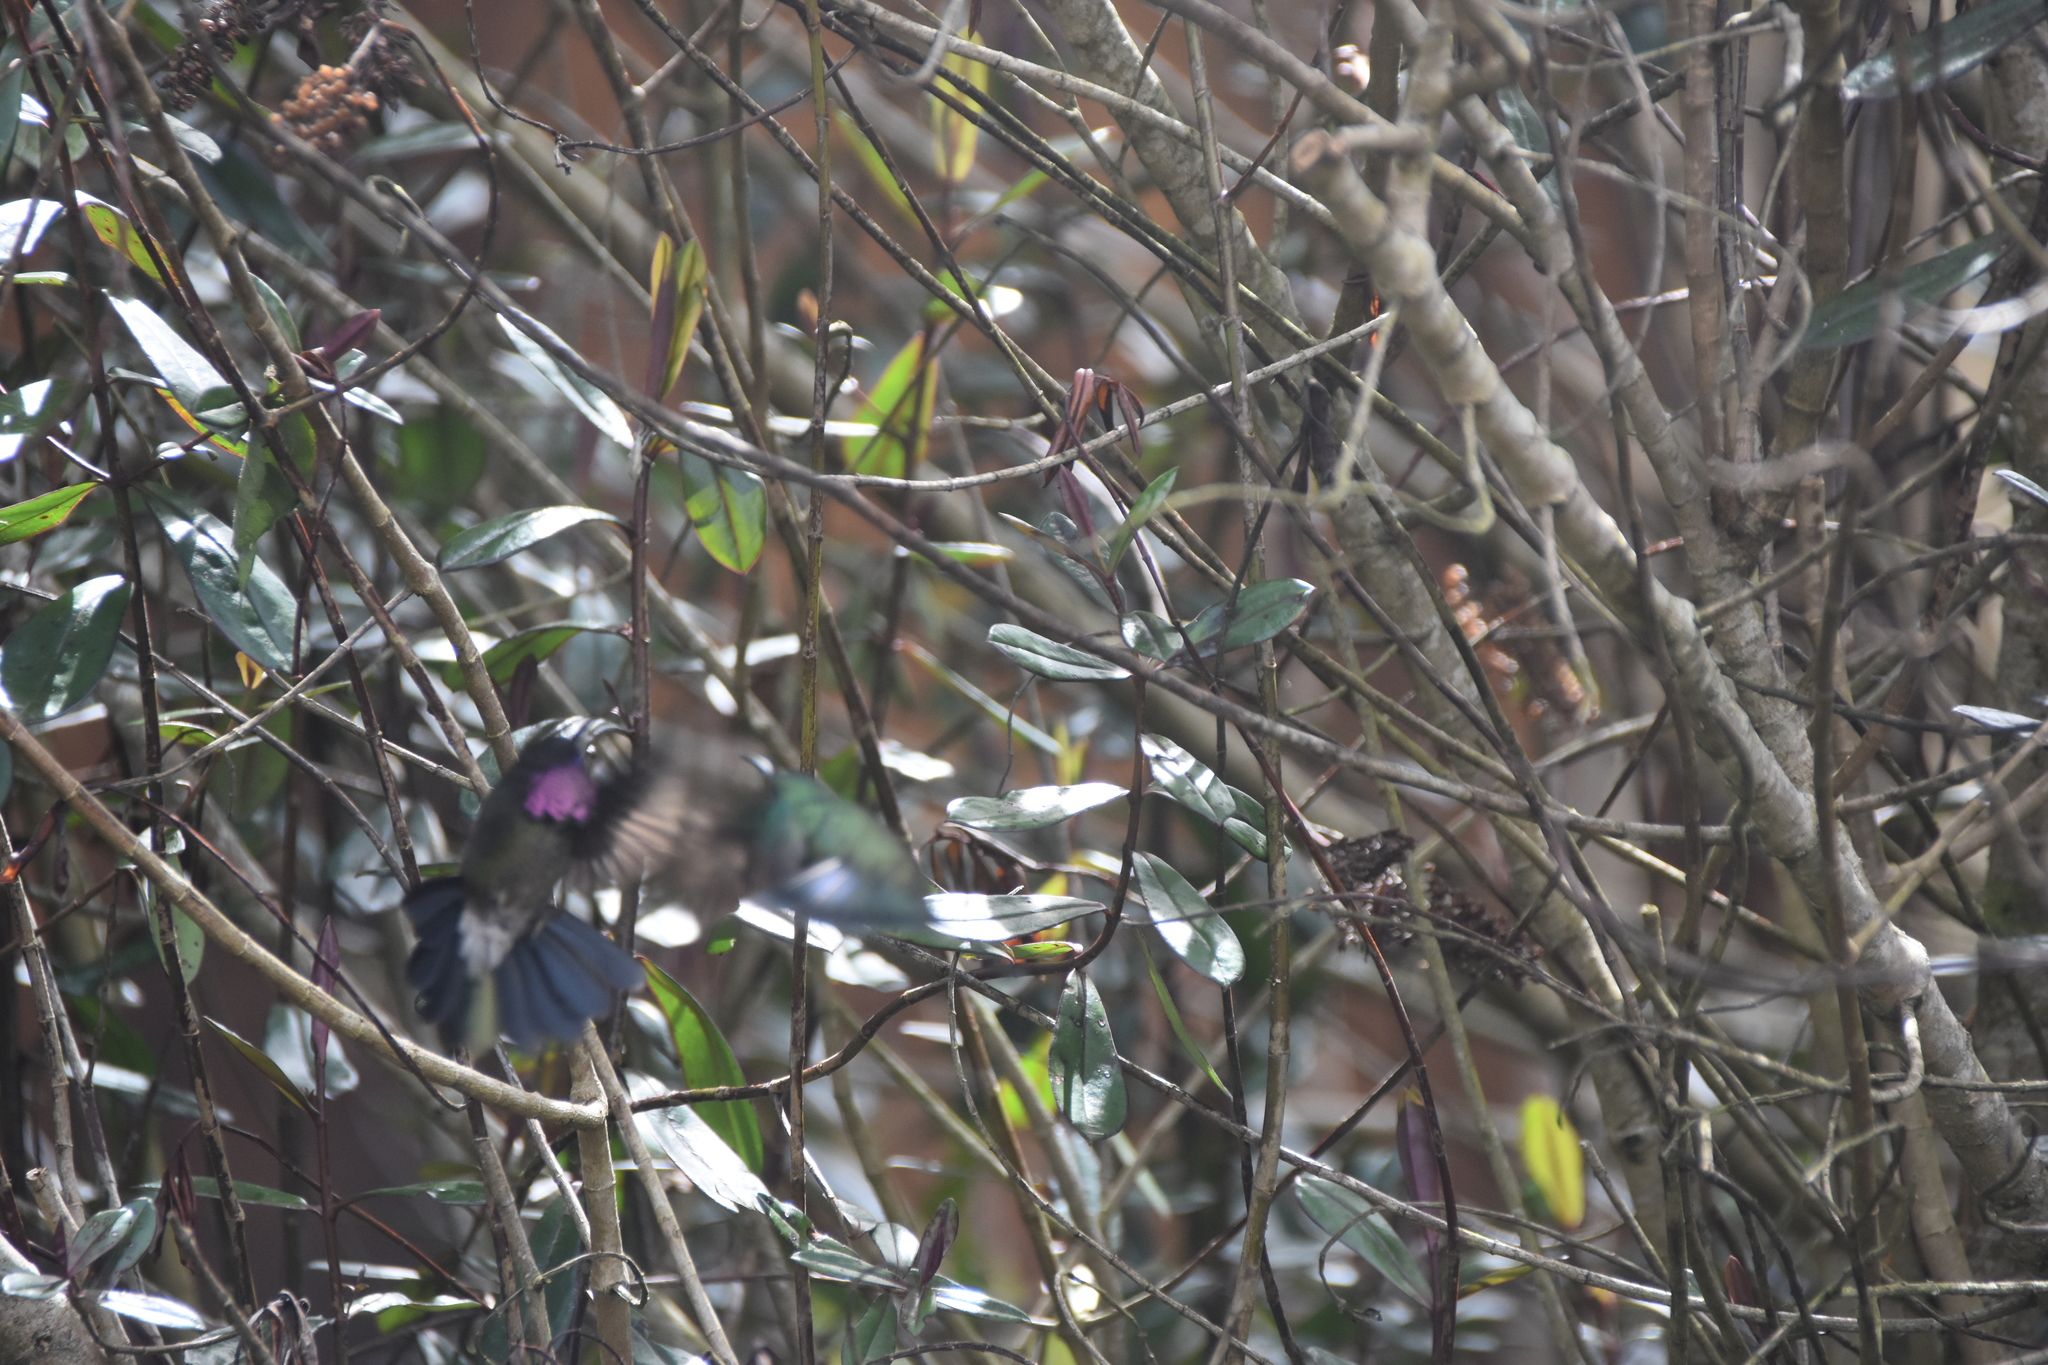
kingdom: Animalia
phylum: Chordata
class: Aves
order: Apodiformes
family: Trochilidae
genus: Heliangelus
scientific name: Heliangelus clarisse
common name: Longuemare's sunangel
